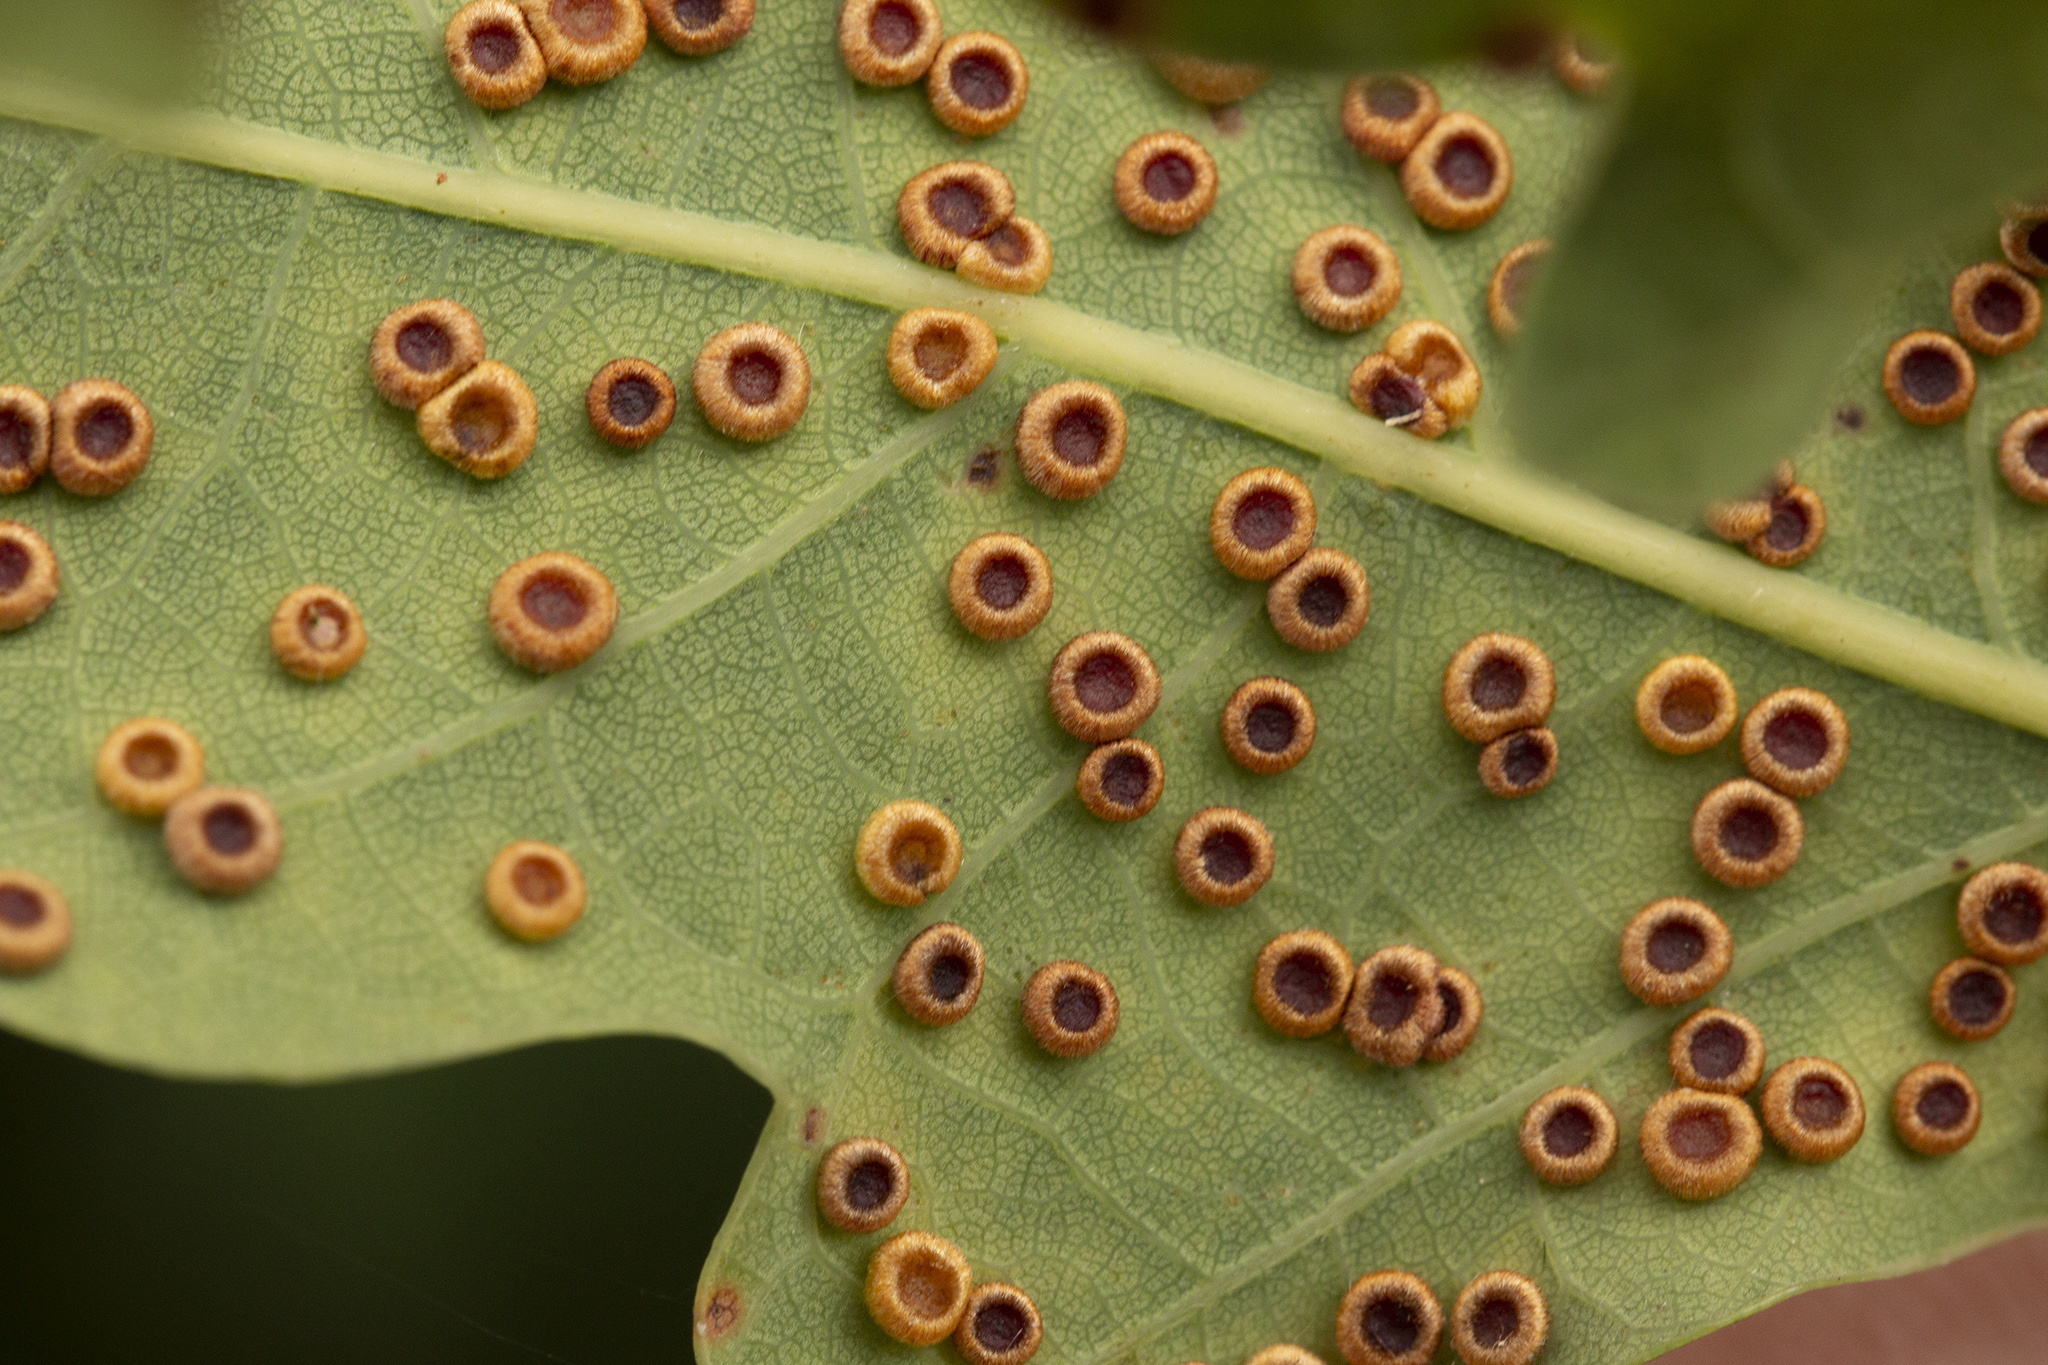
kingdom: Animalia
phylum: Arthropoda
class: Insecta
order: Hymenoptera
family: Cynipidae
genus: Neuroterus
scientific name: Neuroterus numismalis
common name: Silk-button spangle gall
